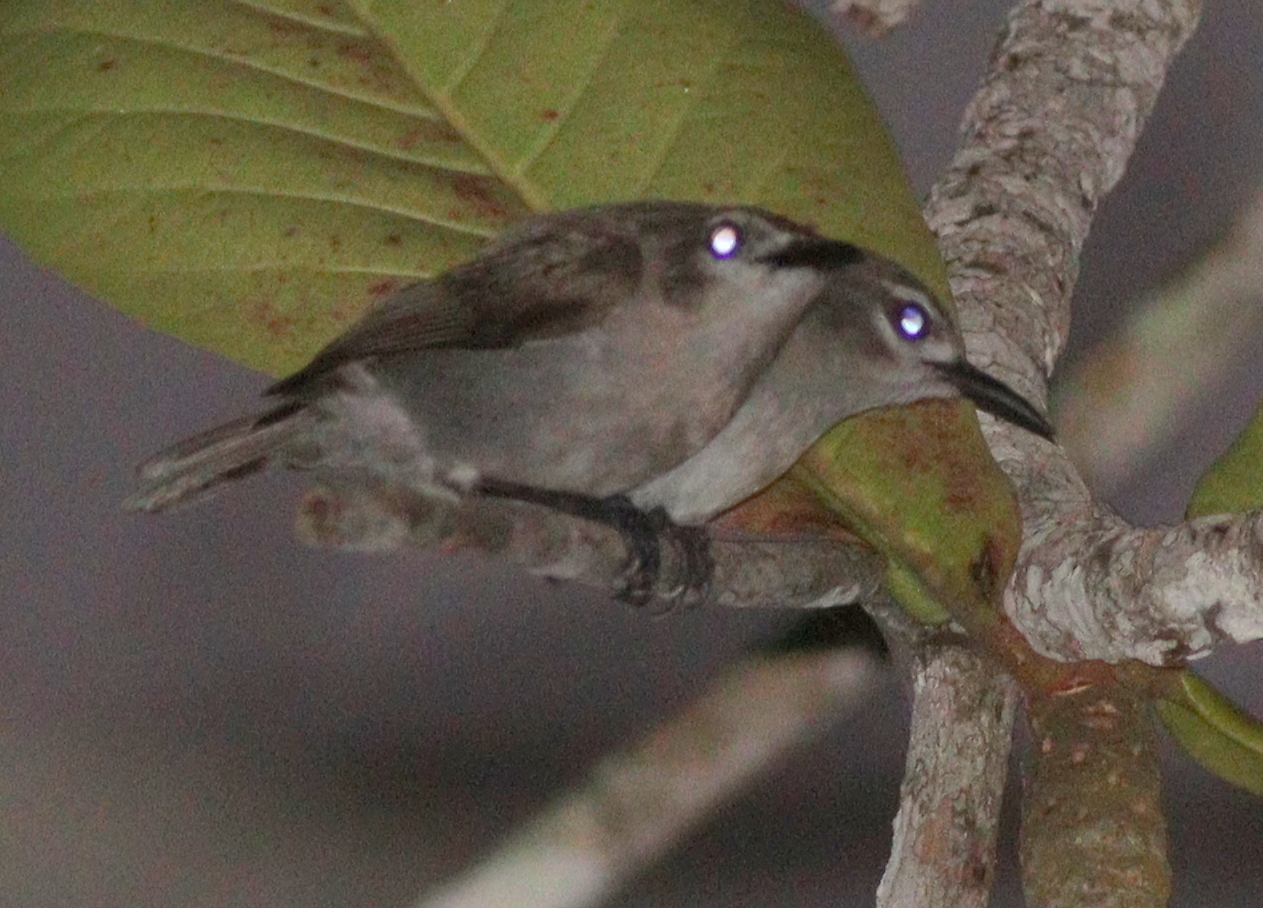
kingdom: Animalia
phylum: Chordata
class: Aves
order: Passeriformes
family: Nectariniidae
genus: Anthreptes
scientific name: Anthreptes gabonicus
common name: Mangrove sunbird
